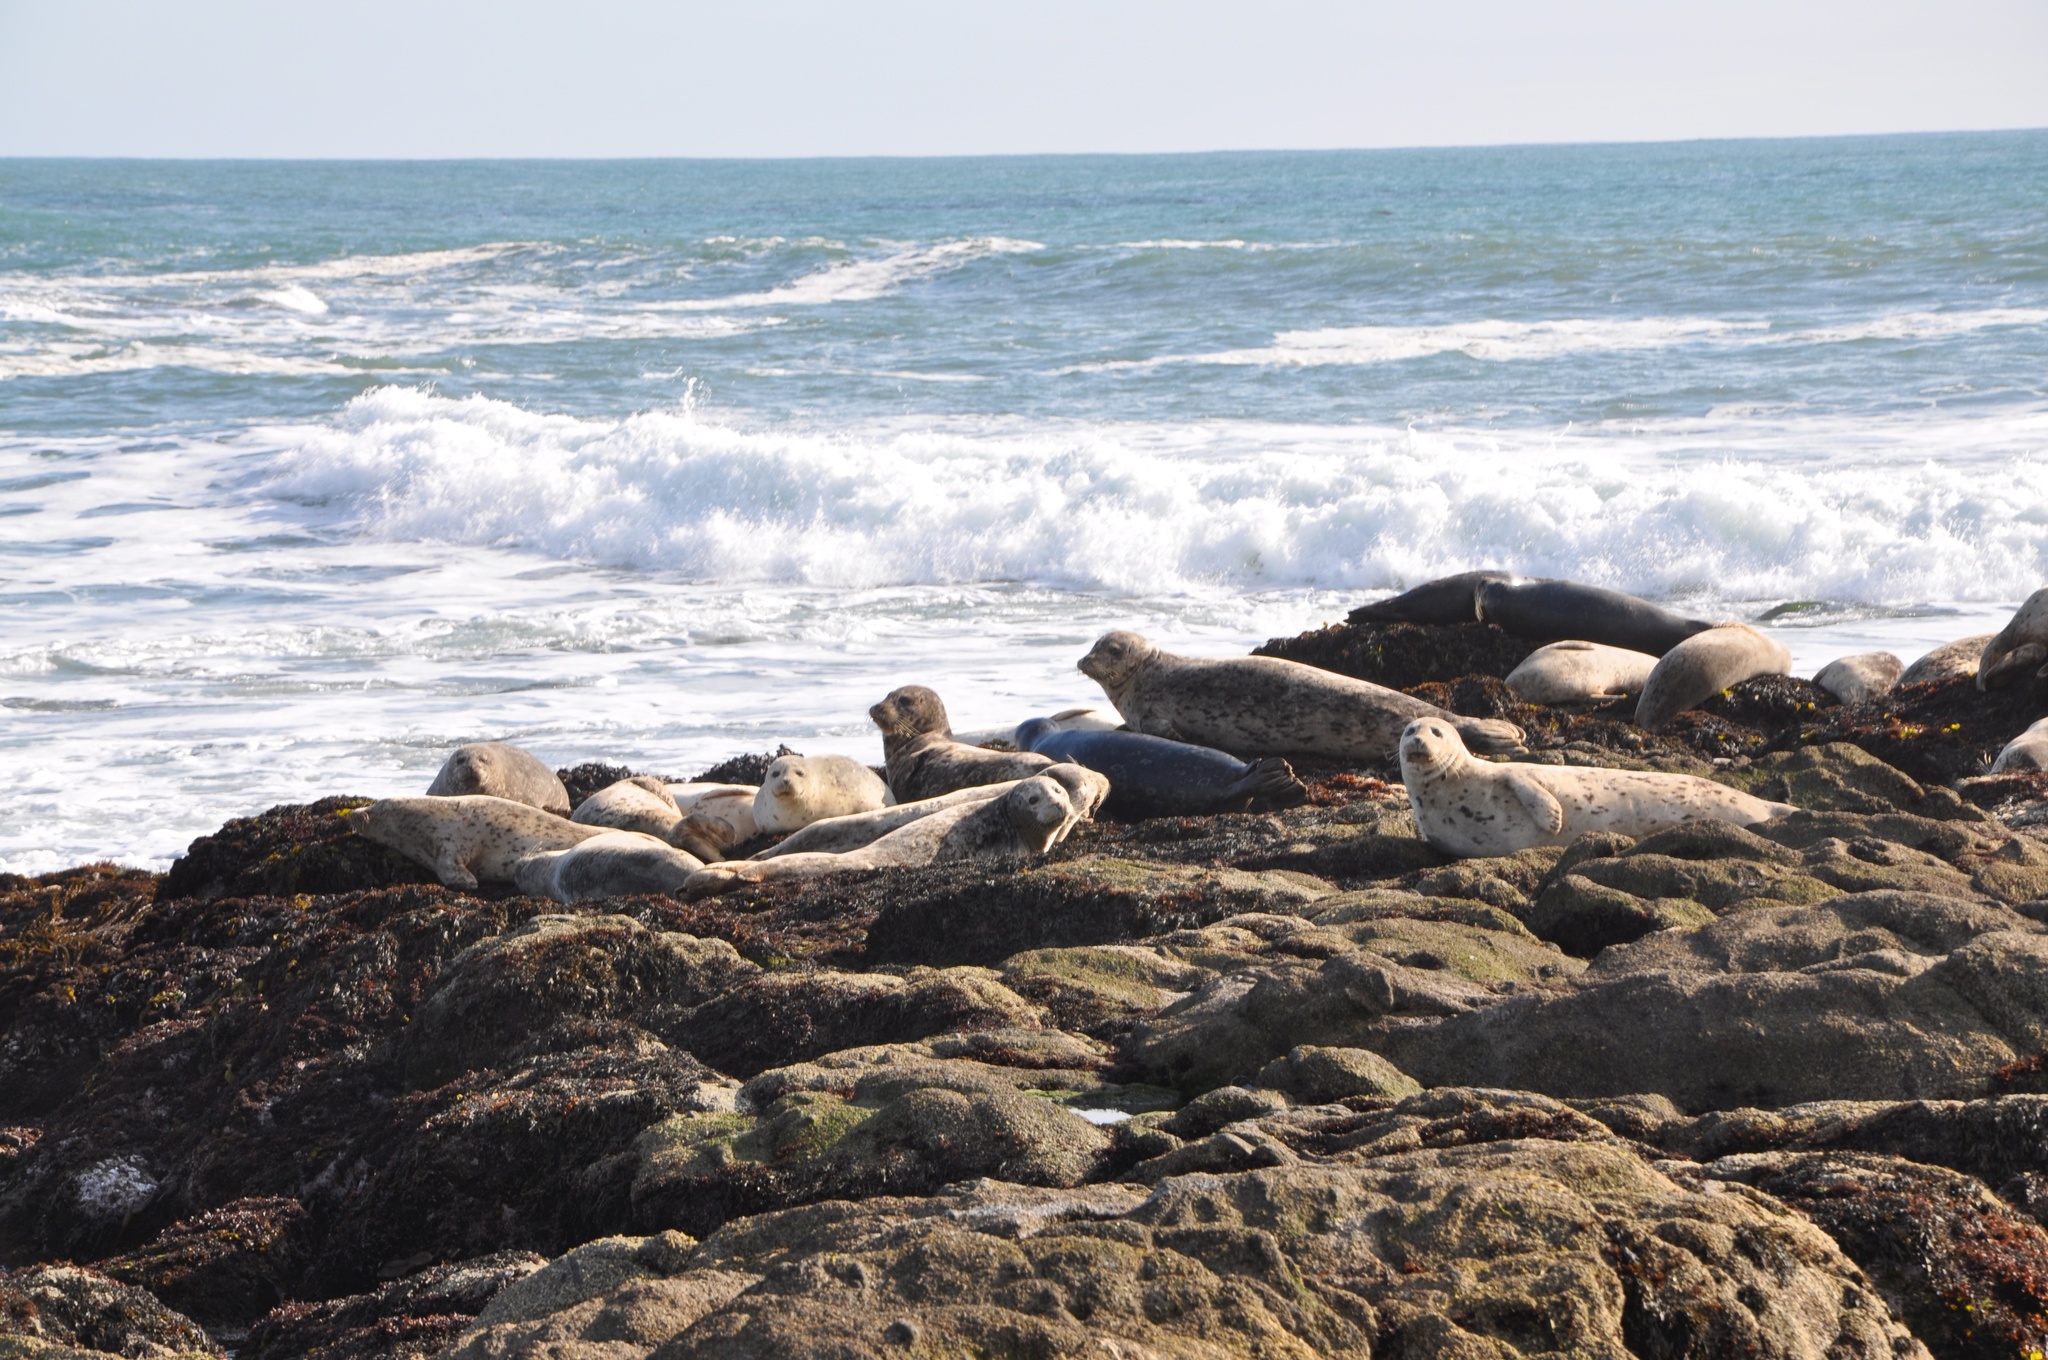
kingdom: Animalia
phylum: Chordata
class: Mammalia
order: Carnivora
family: Phocidae
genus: Phoca
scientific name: Phoca vitulina
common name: Harbor seal
